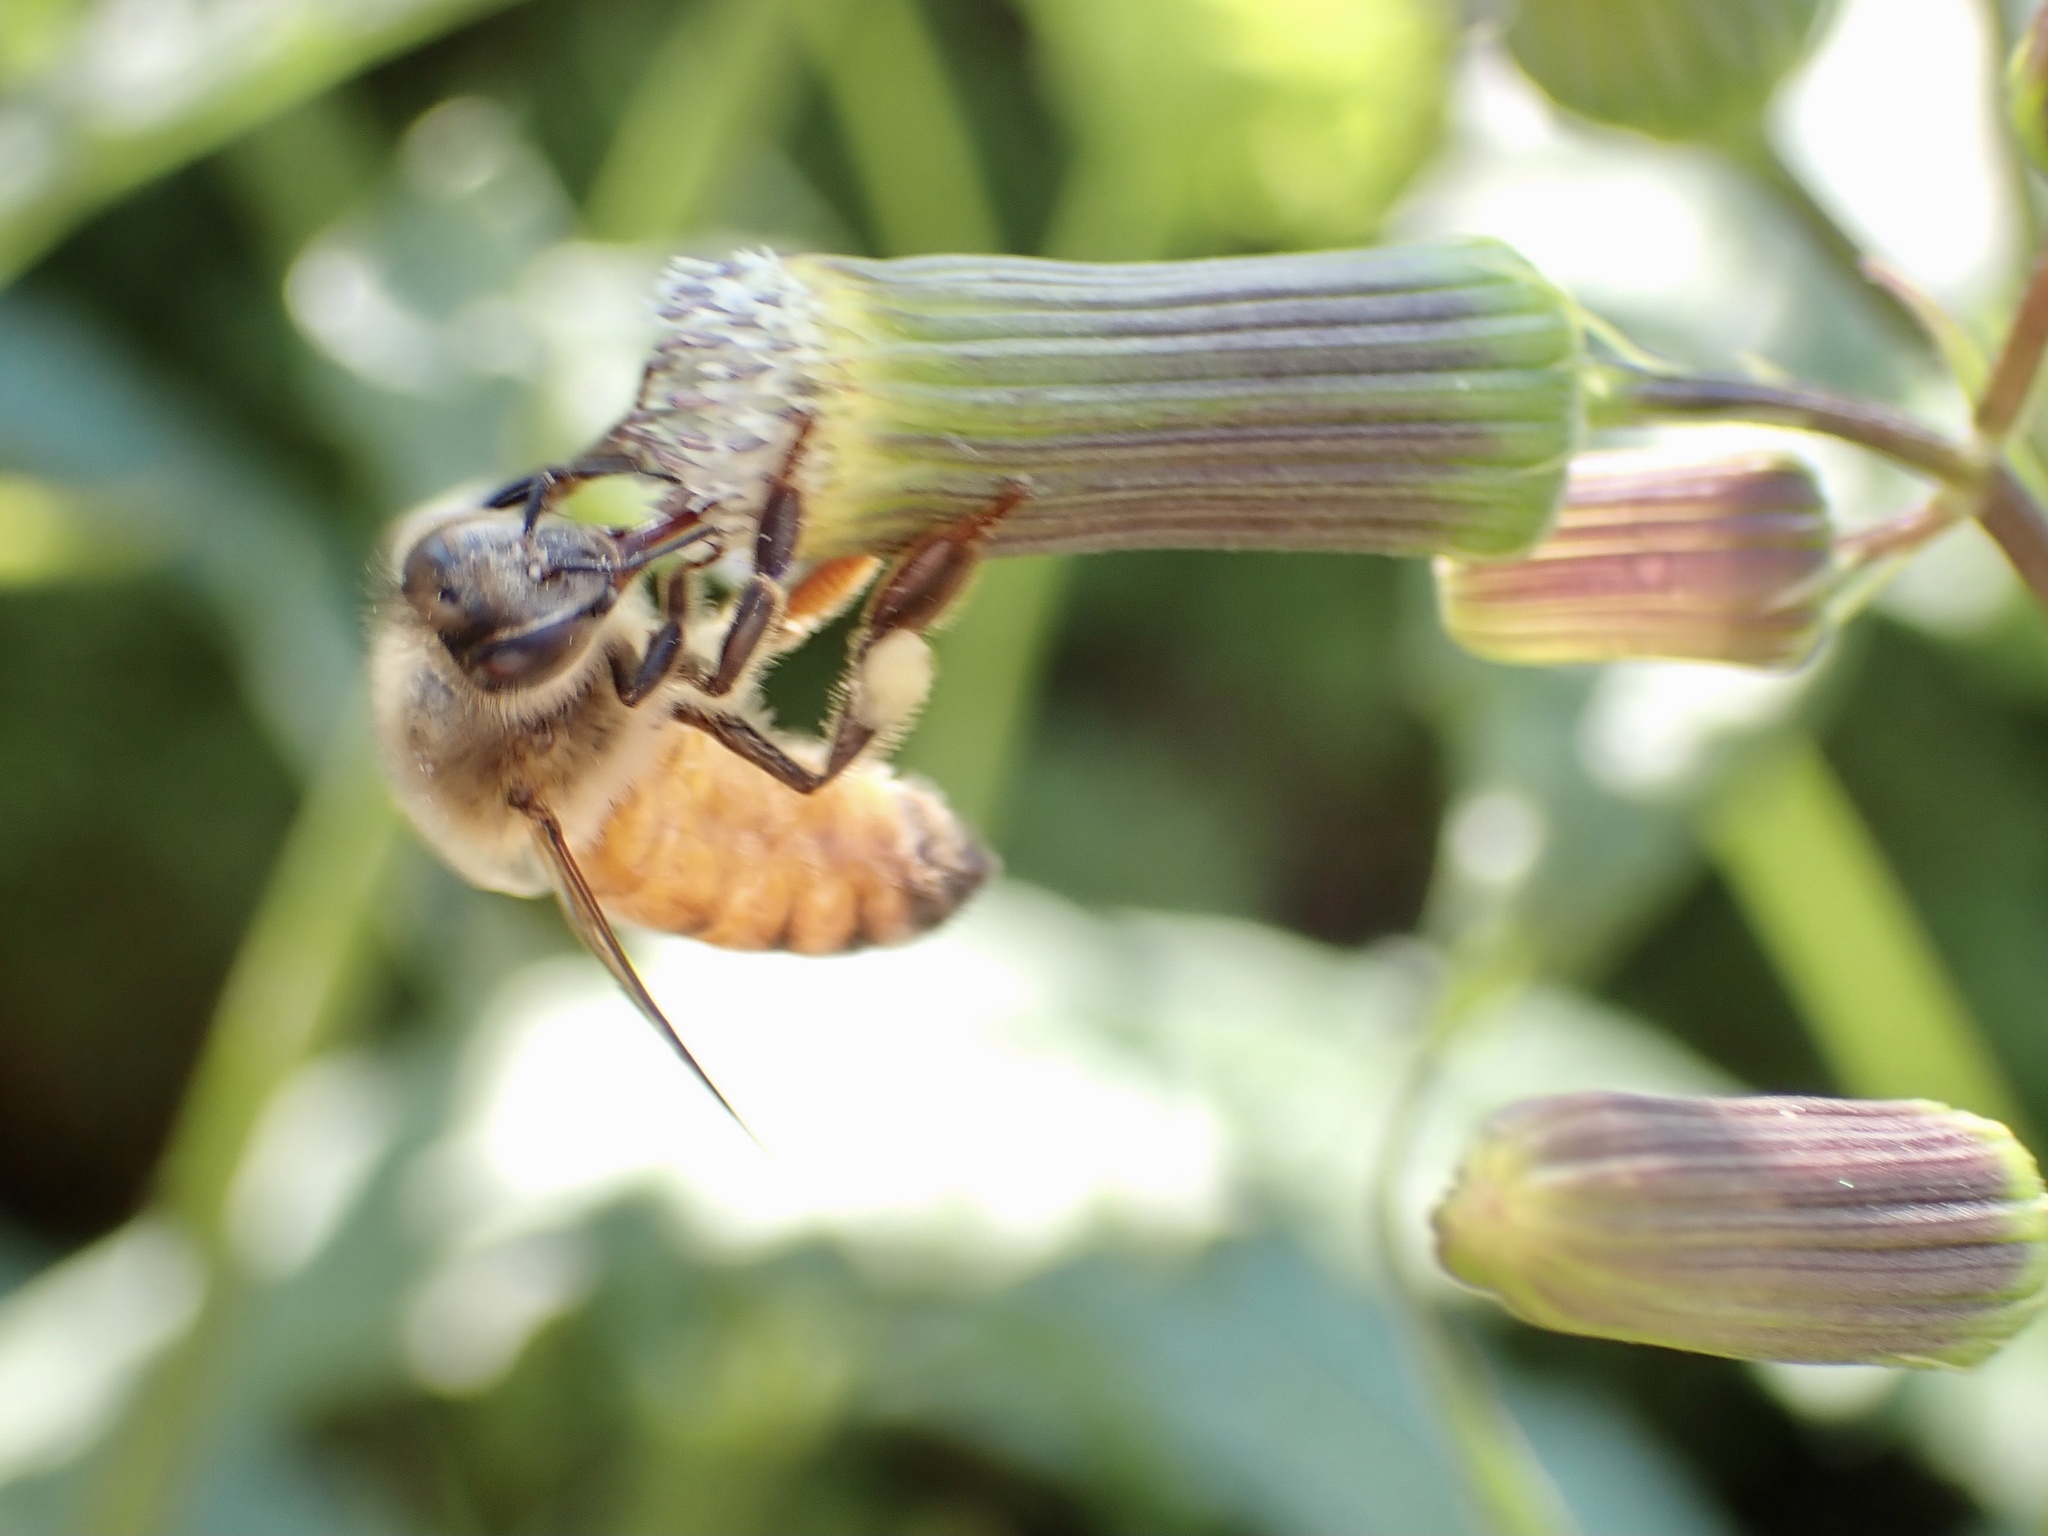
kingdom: Animalia
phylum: Arthropoda
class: Insecta
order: Hymenoptera
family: Apidae
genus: Apis
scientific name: Apis mellifera
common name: Honey bee
